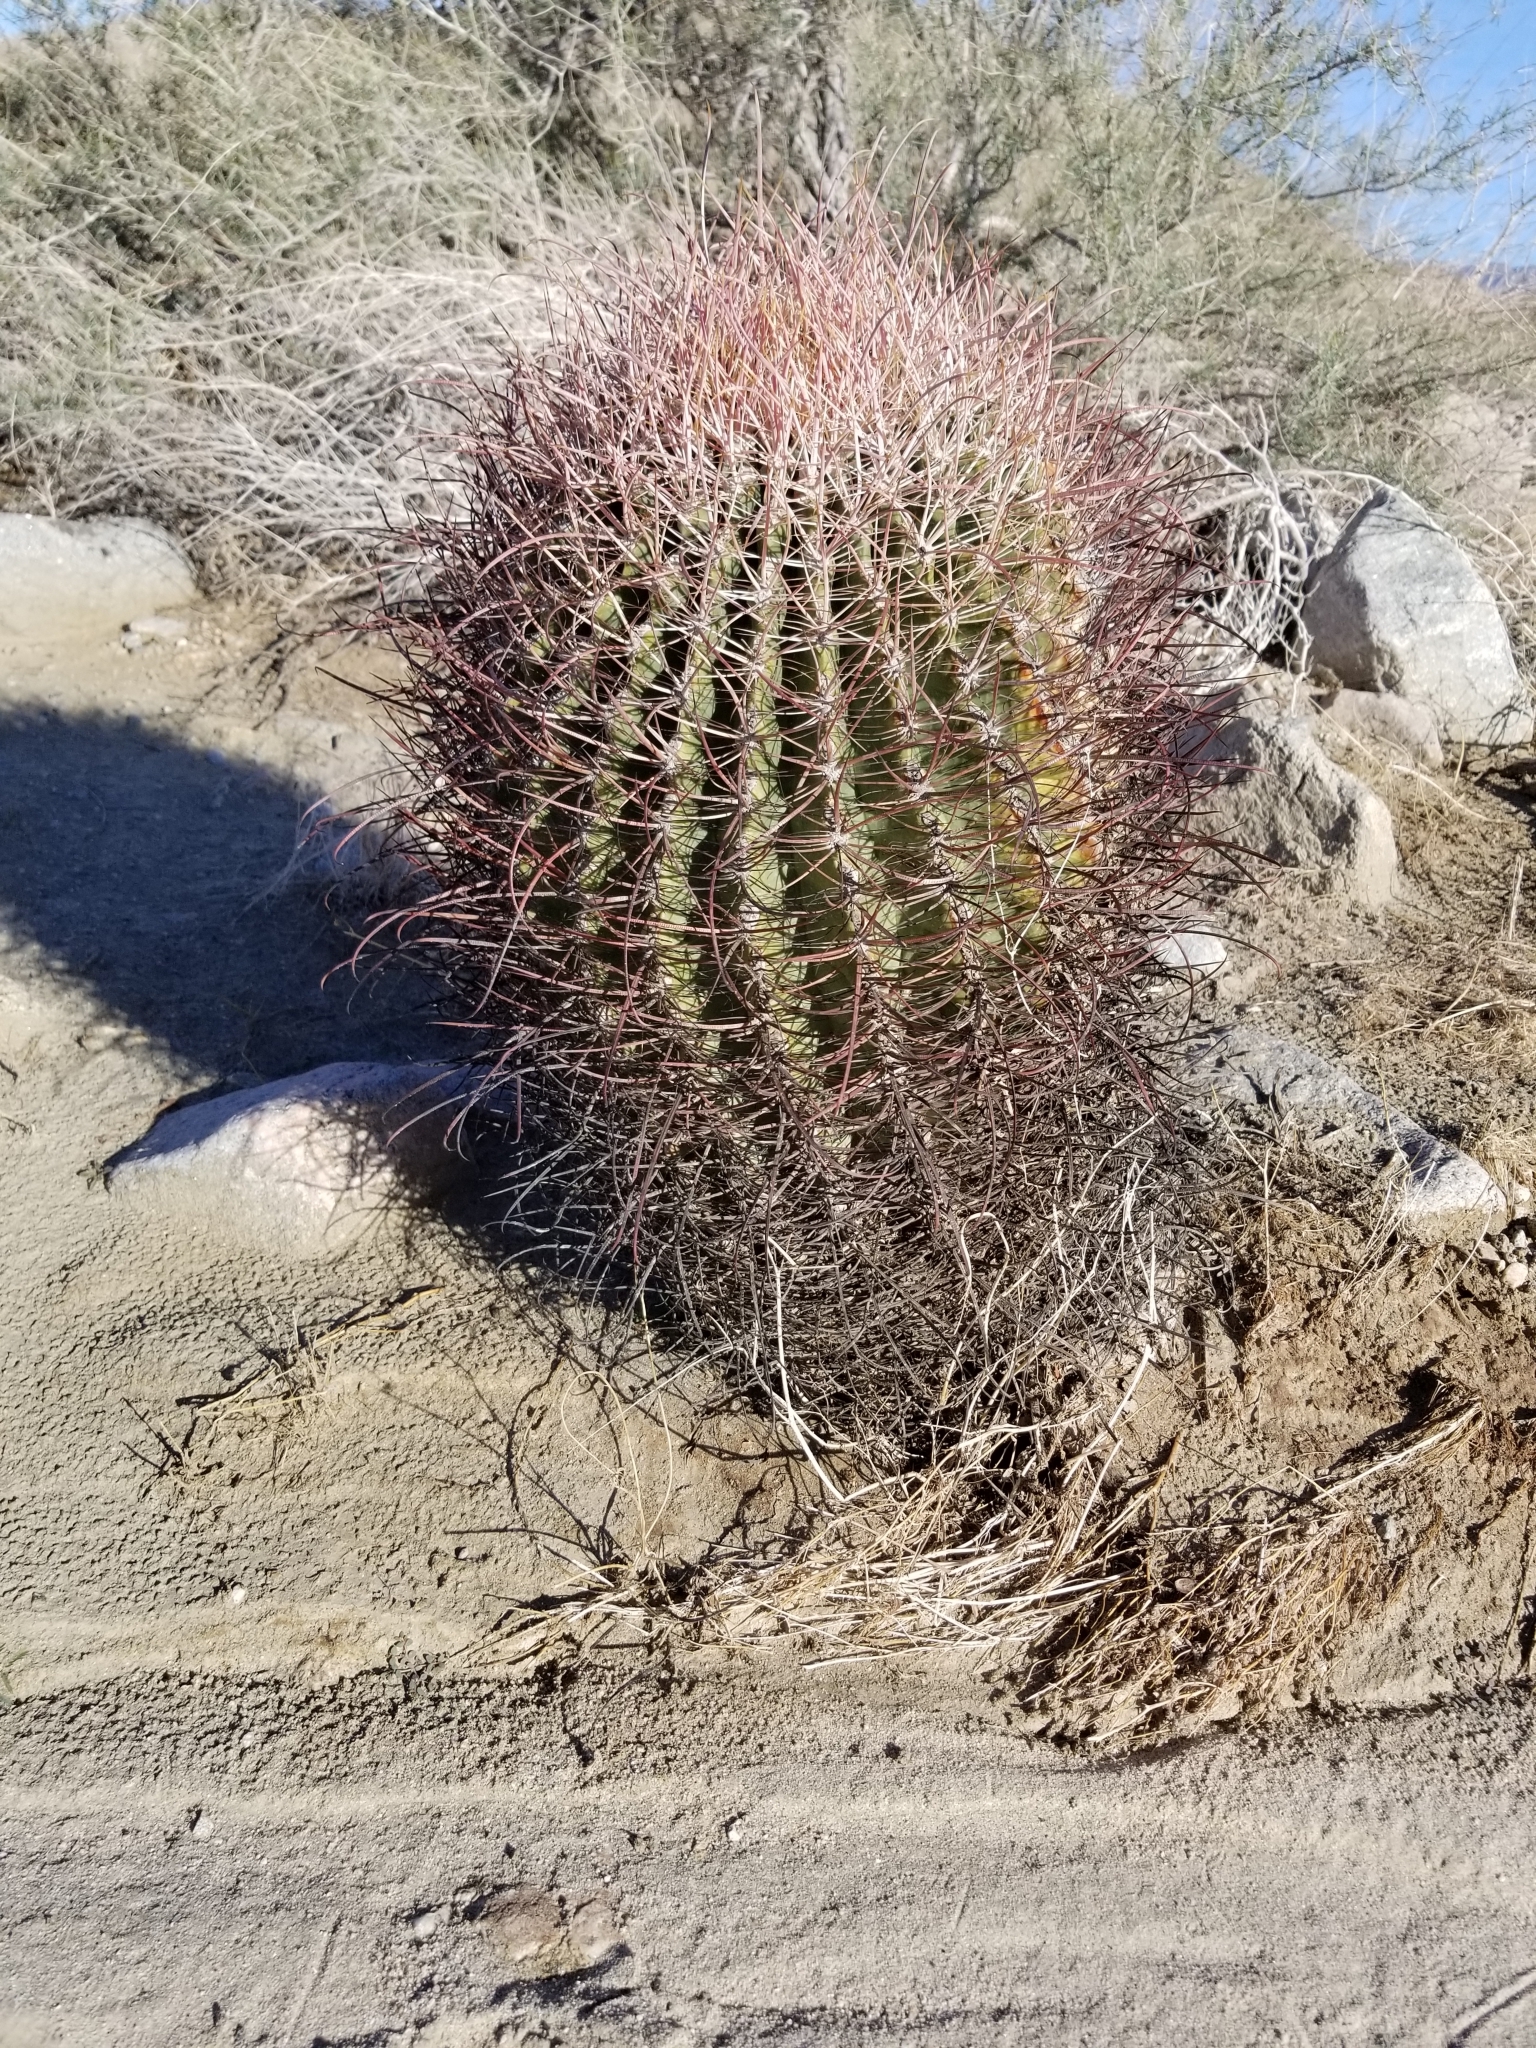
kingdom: Plantae
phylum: Tracheophyta
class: Magnoliopsida
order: Caryophyllales
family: Cactaceae
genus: Ferocactus
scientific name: Ferocactus cylindraceus
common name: California barrel cactus
